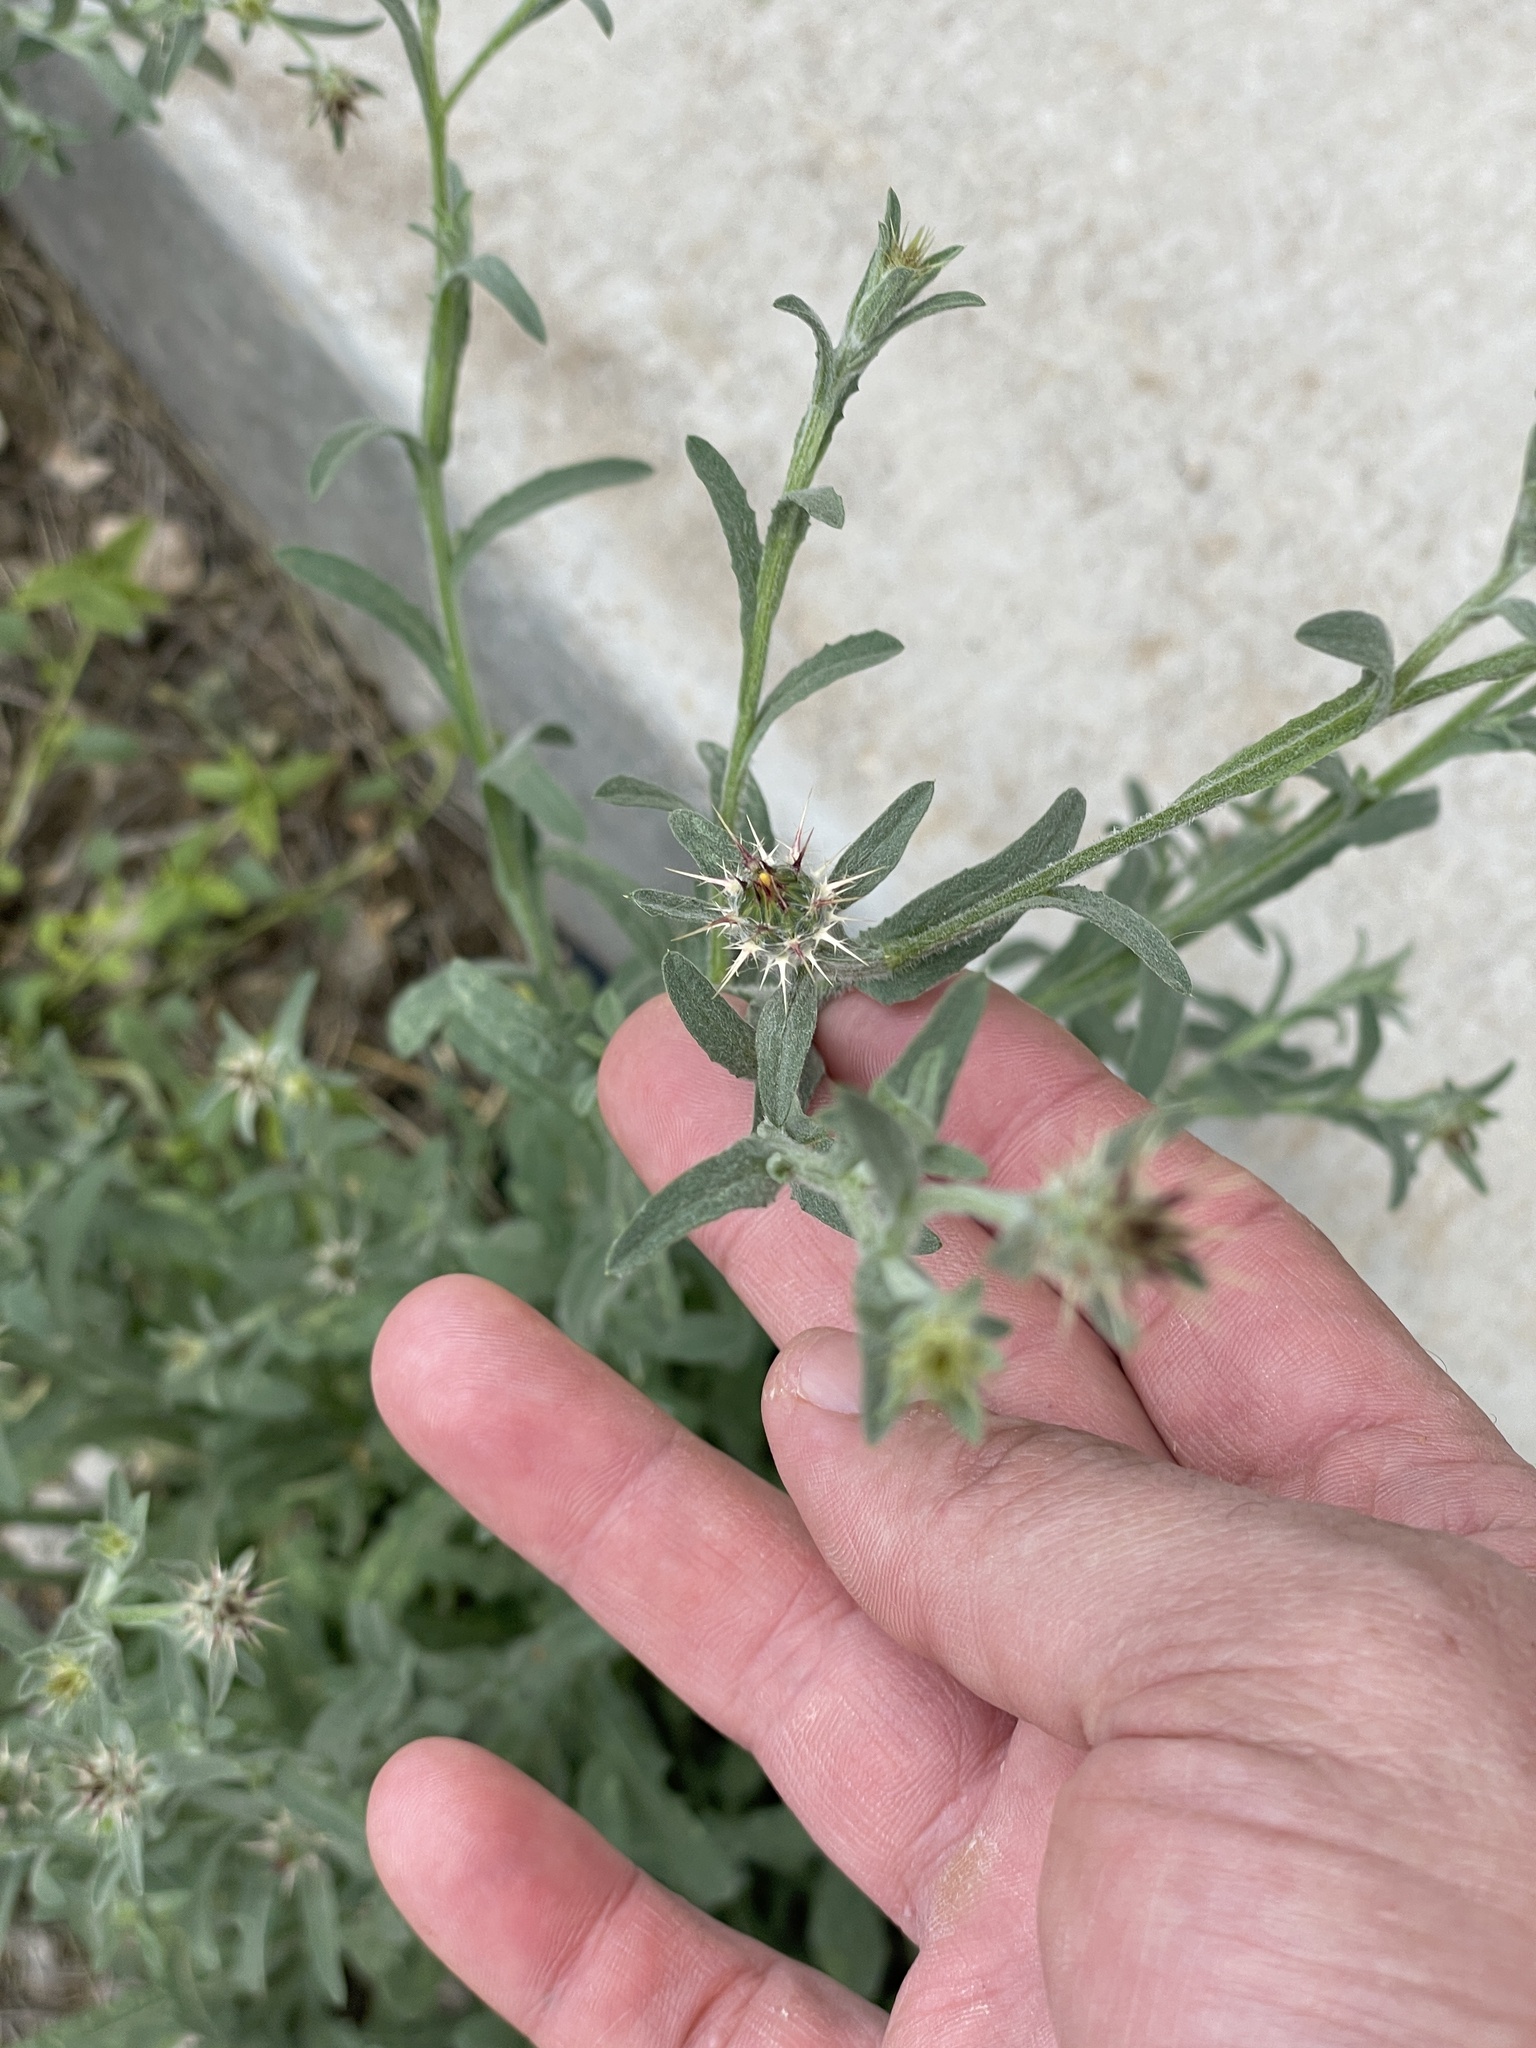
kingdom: Plantae
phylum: Tracheophyta
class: Magnoliopsida
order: Asterales
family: Asteraceae
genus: Centaurea
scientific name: Centaurea melitensis
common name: Maltese star-thistle
